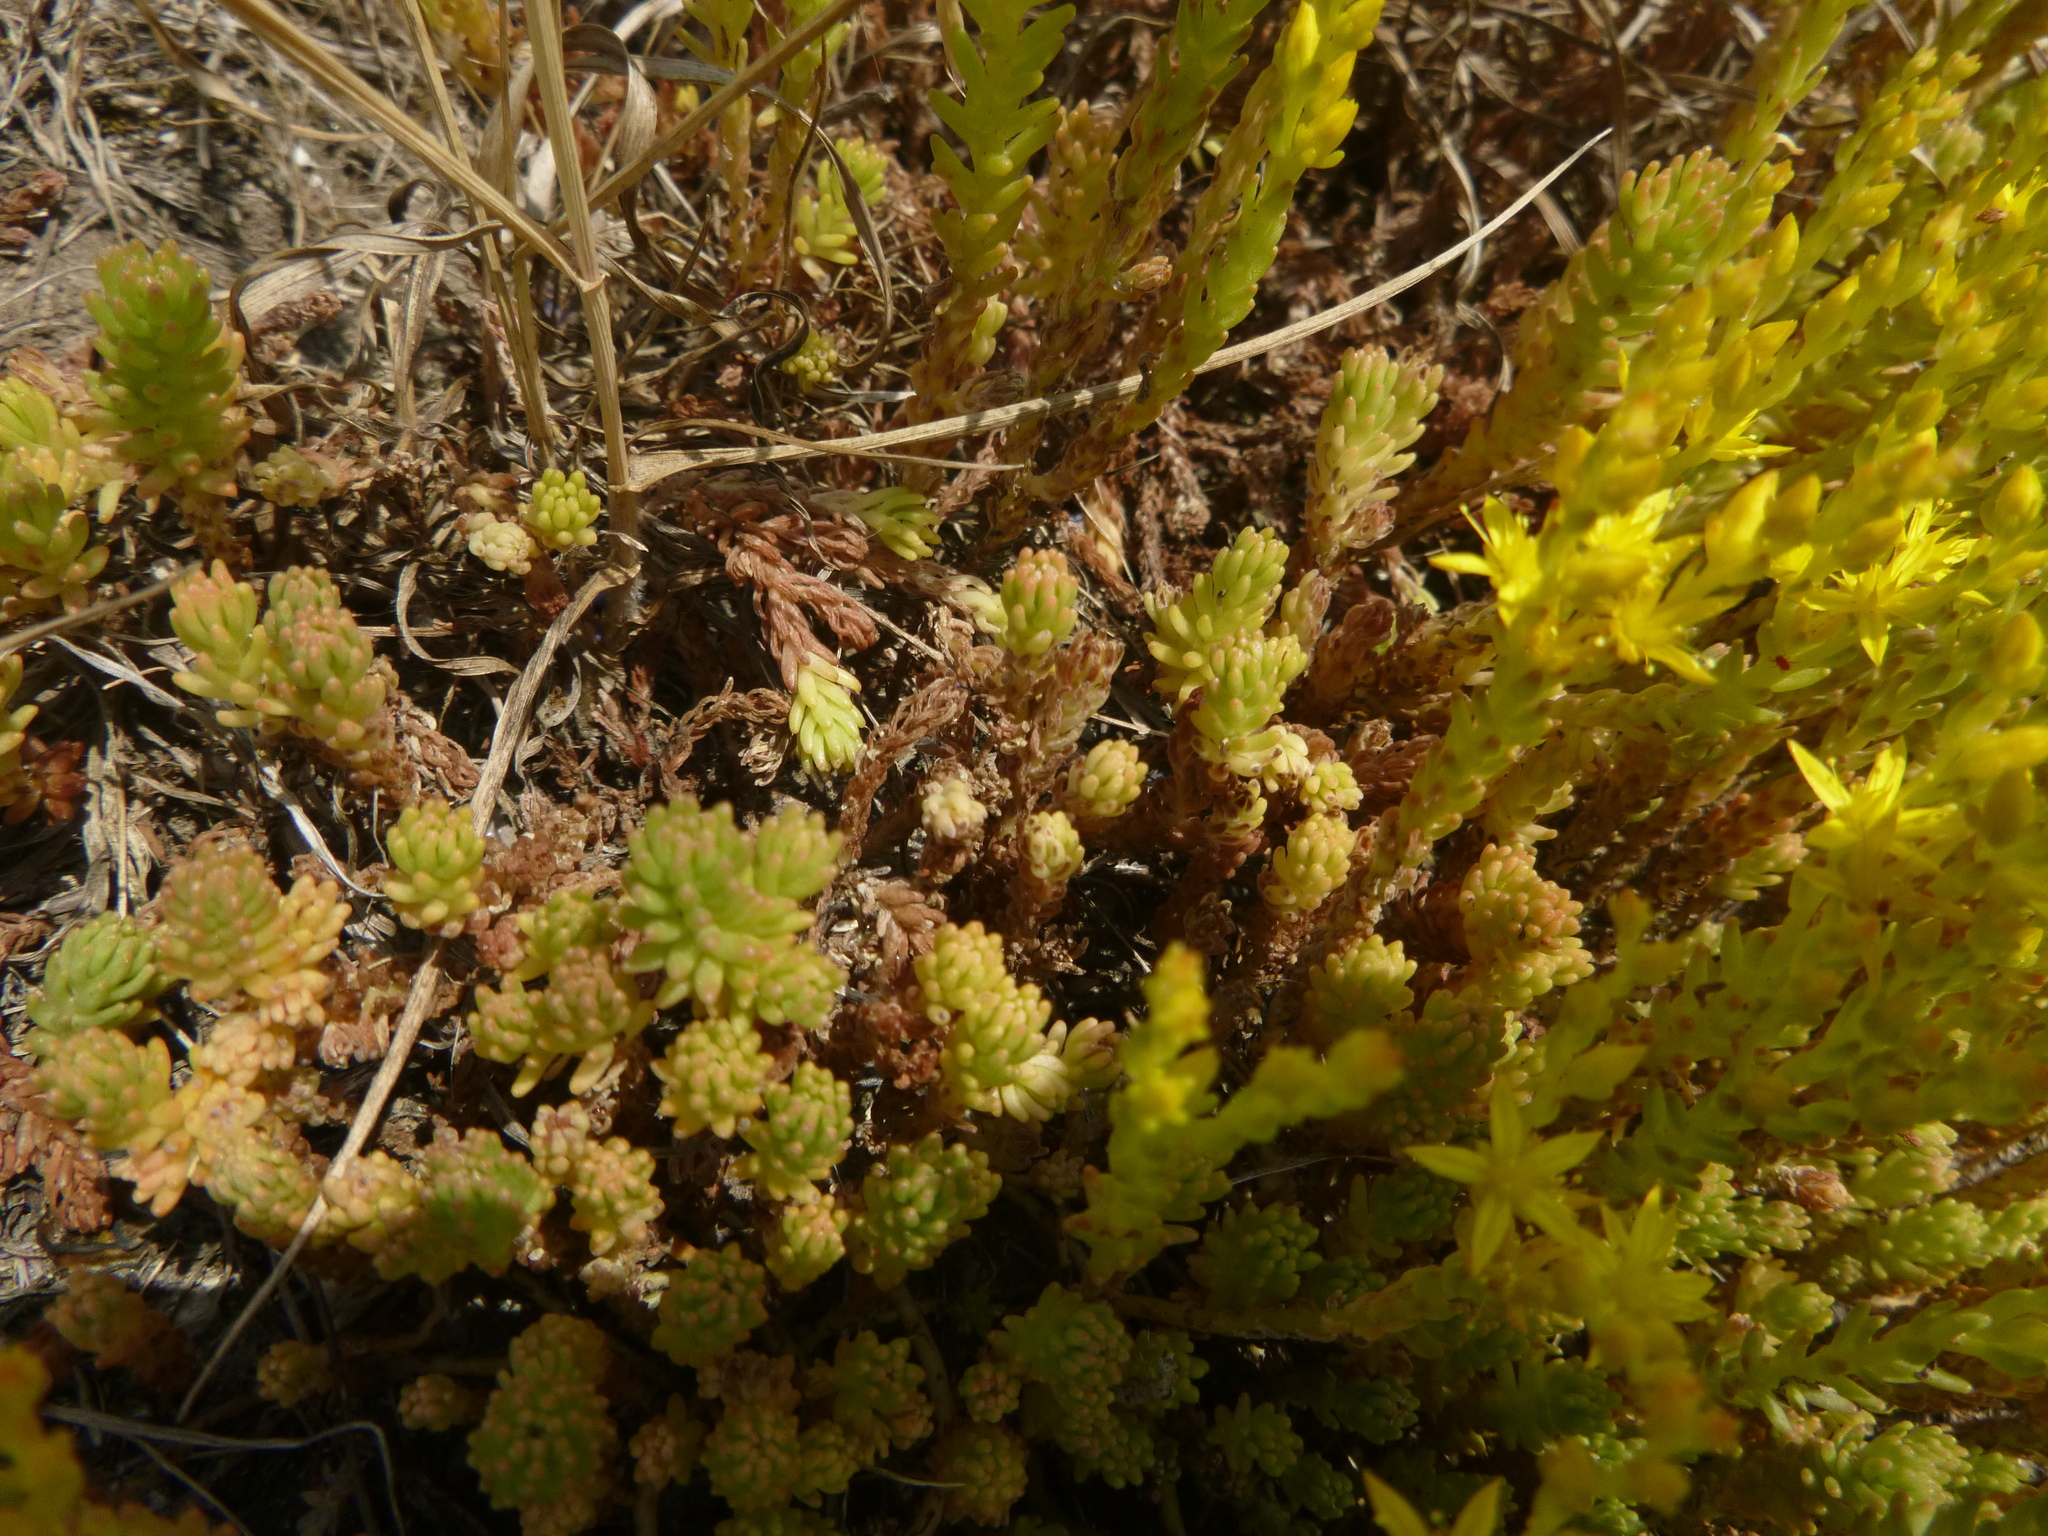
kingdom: Plantae
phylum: Tracheophyta
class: Magnoliopsida
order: Saxifragales
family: Crassulaceae
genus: Sedum
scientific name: Sedum sexangulare
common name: Tasteless stonecrop
